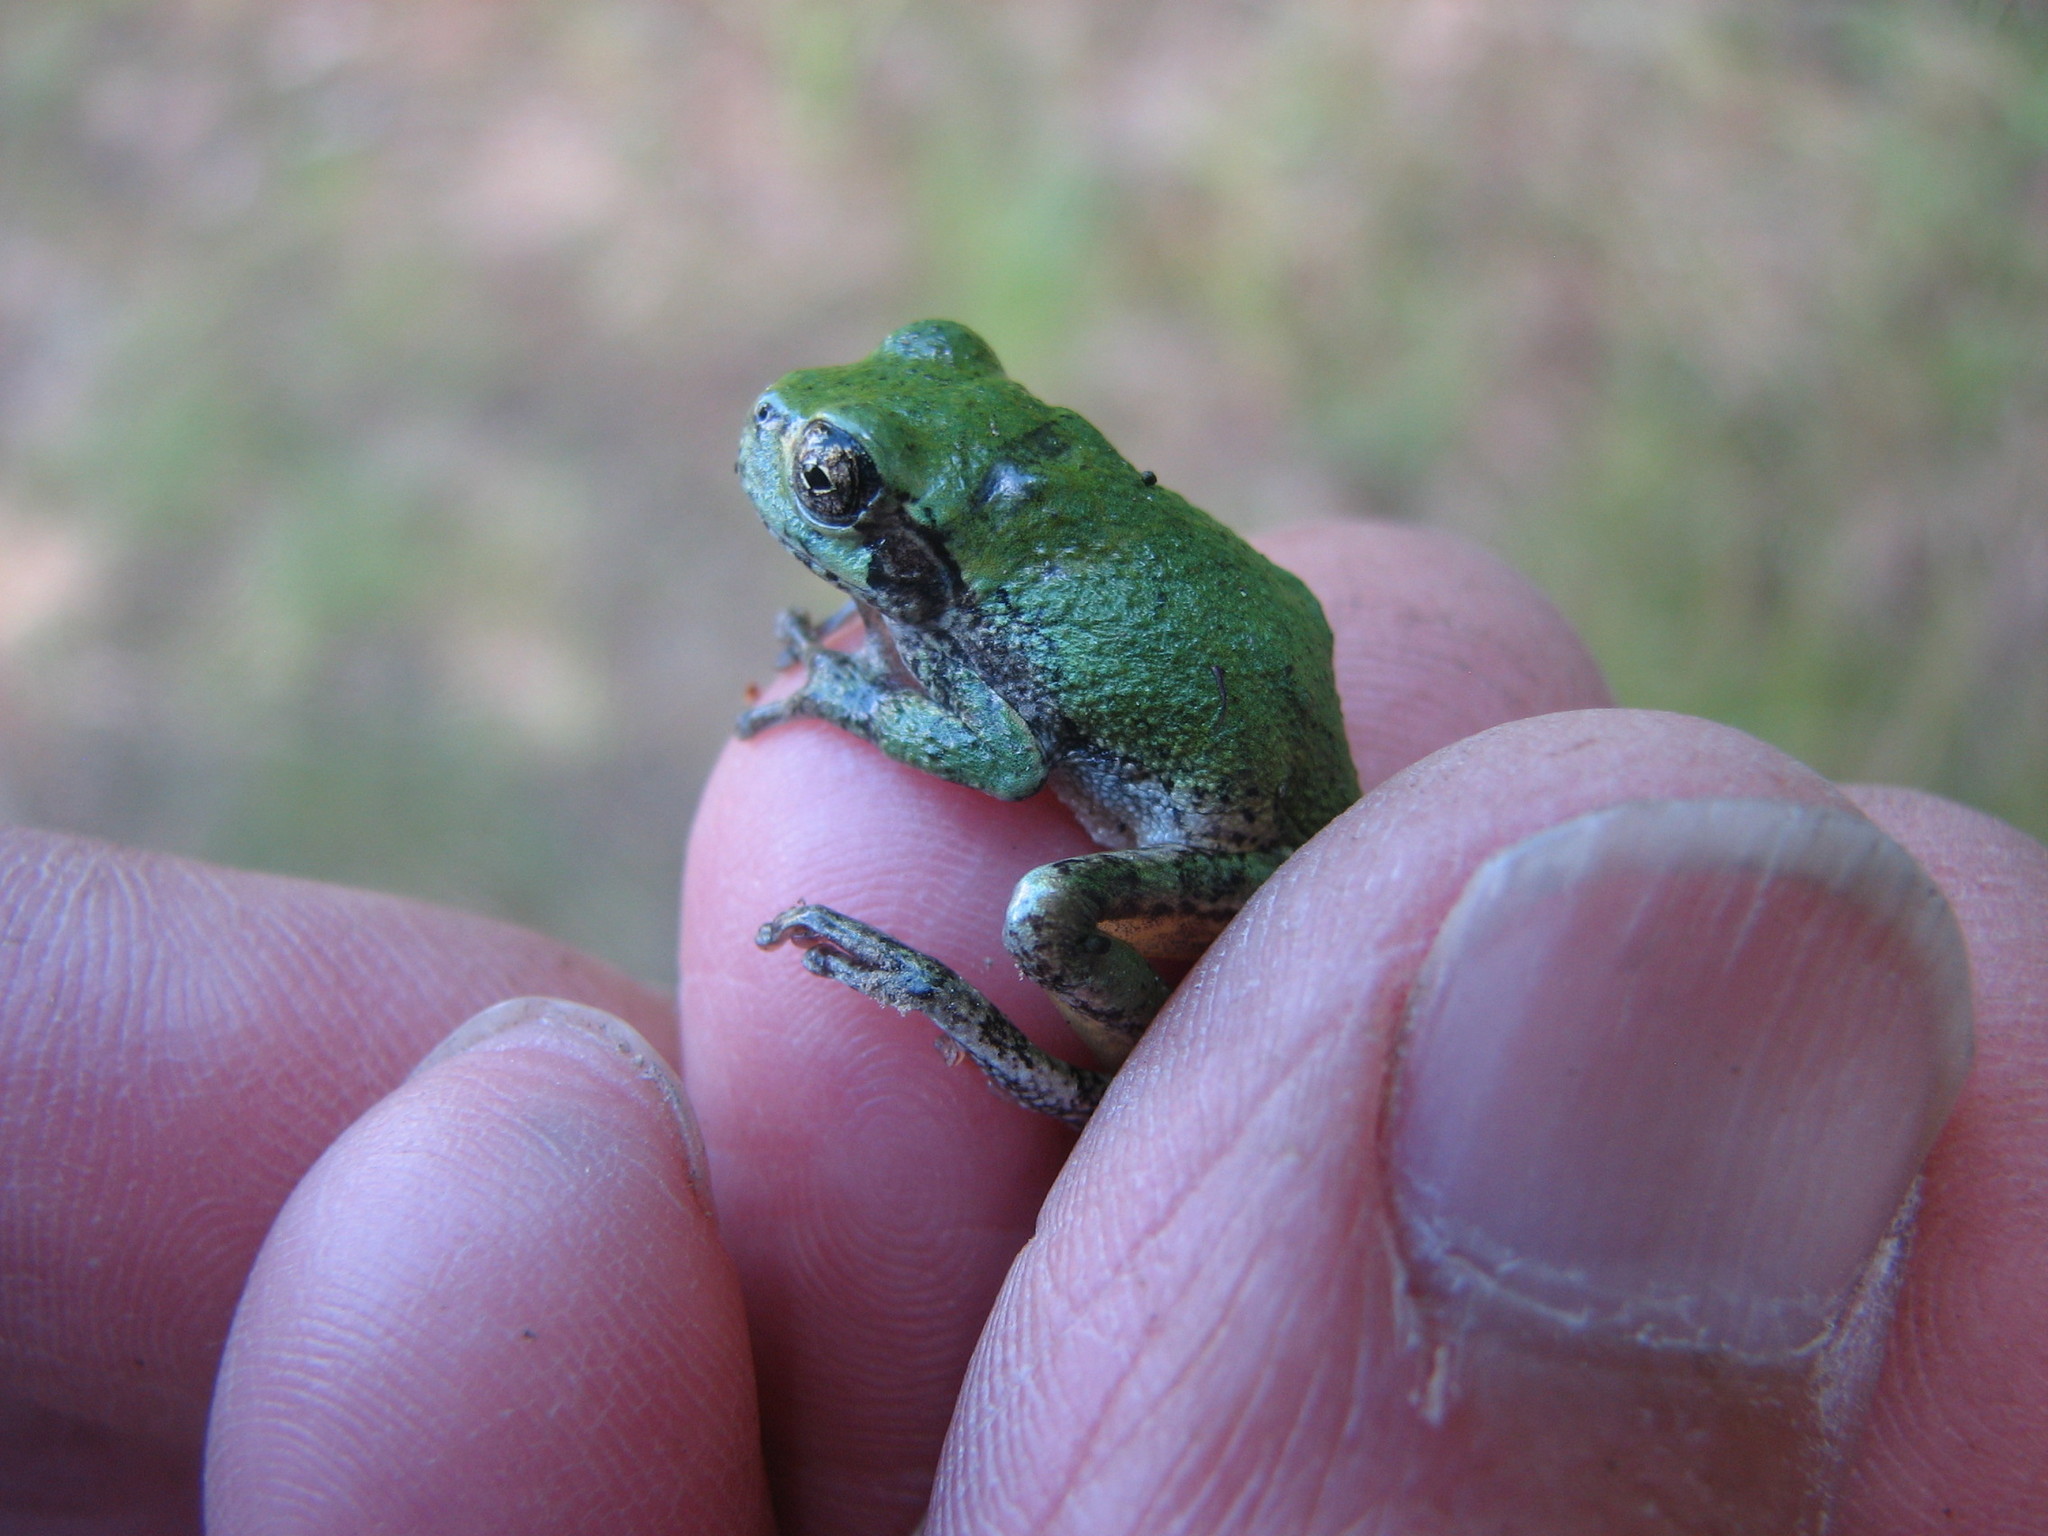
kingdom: Animalia
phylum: Chordata
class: Amphibia
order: Anura
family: Hylidae
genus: Dryophytes
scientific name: Dryophytes versicolor
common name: Gray treefrog
